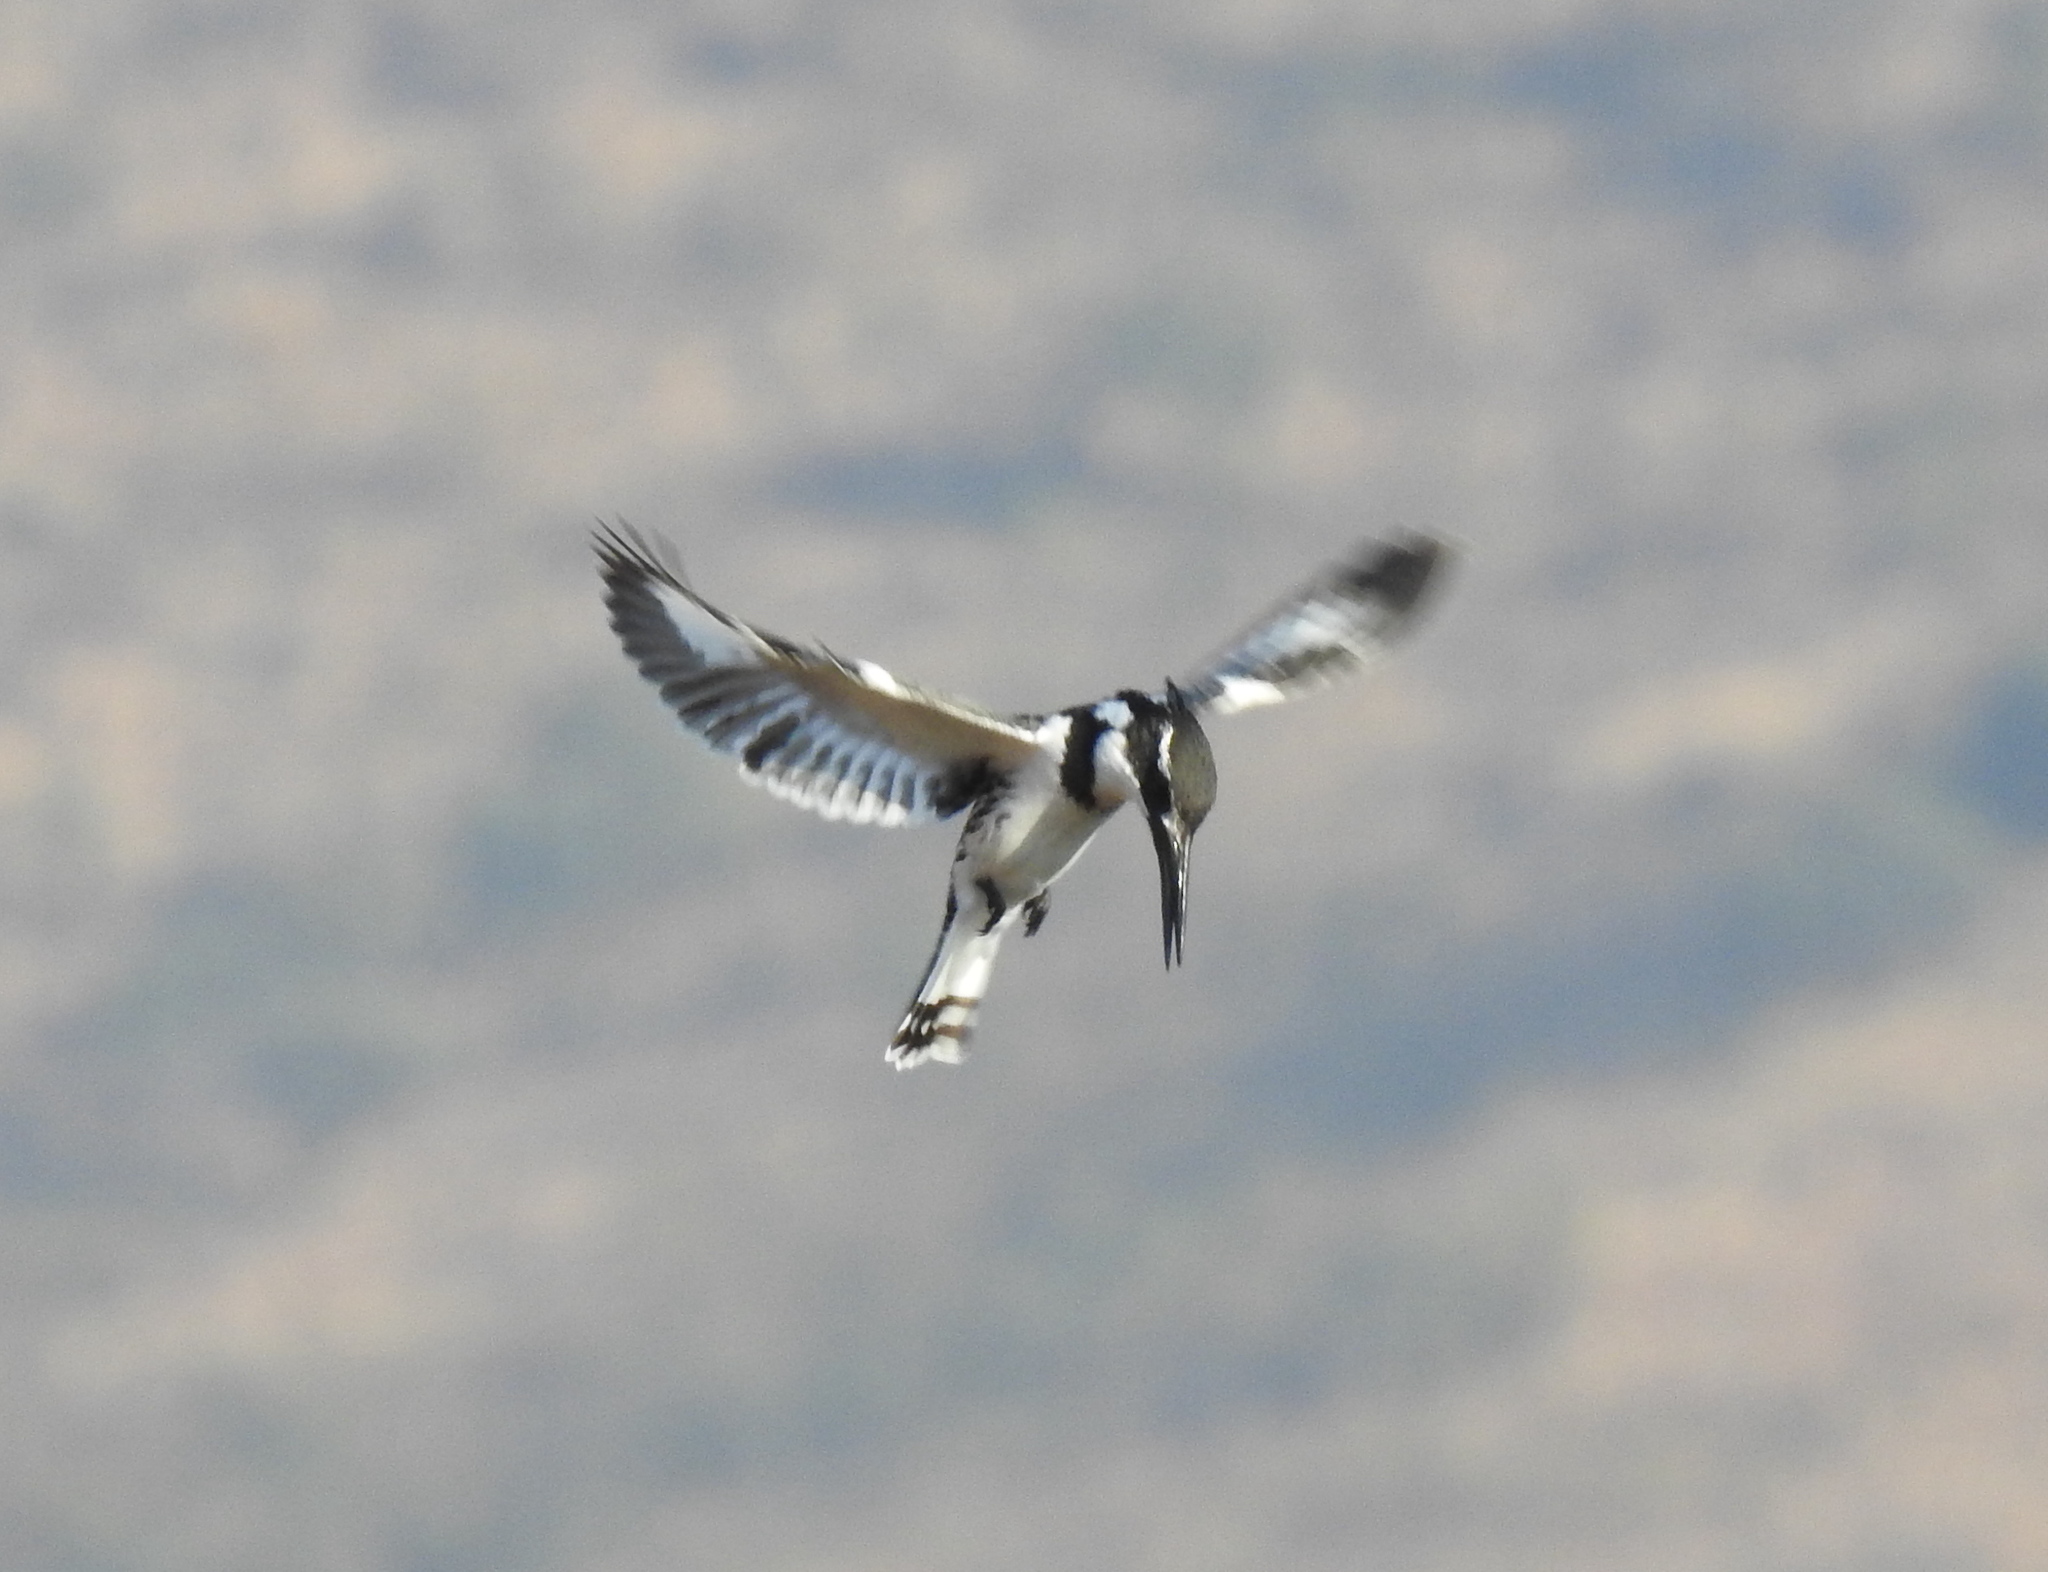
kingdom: Animalia
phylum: Chordata
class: Aves
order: Coraciiformes
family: Alcedinidae
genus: Ceryle
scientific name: Ceryle rudis
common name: Pied kingfisher
